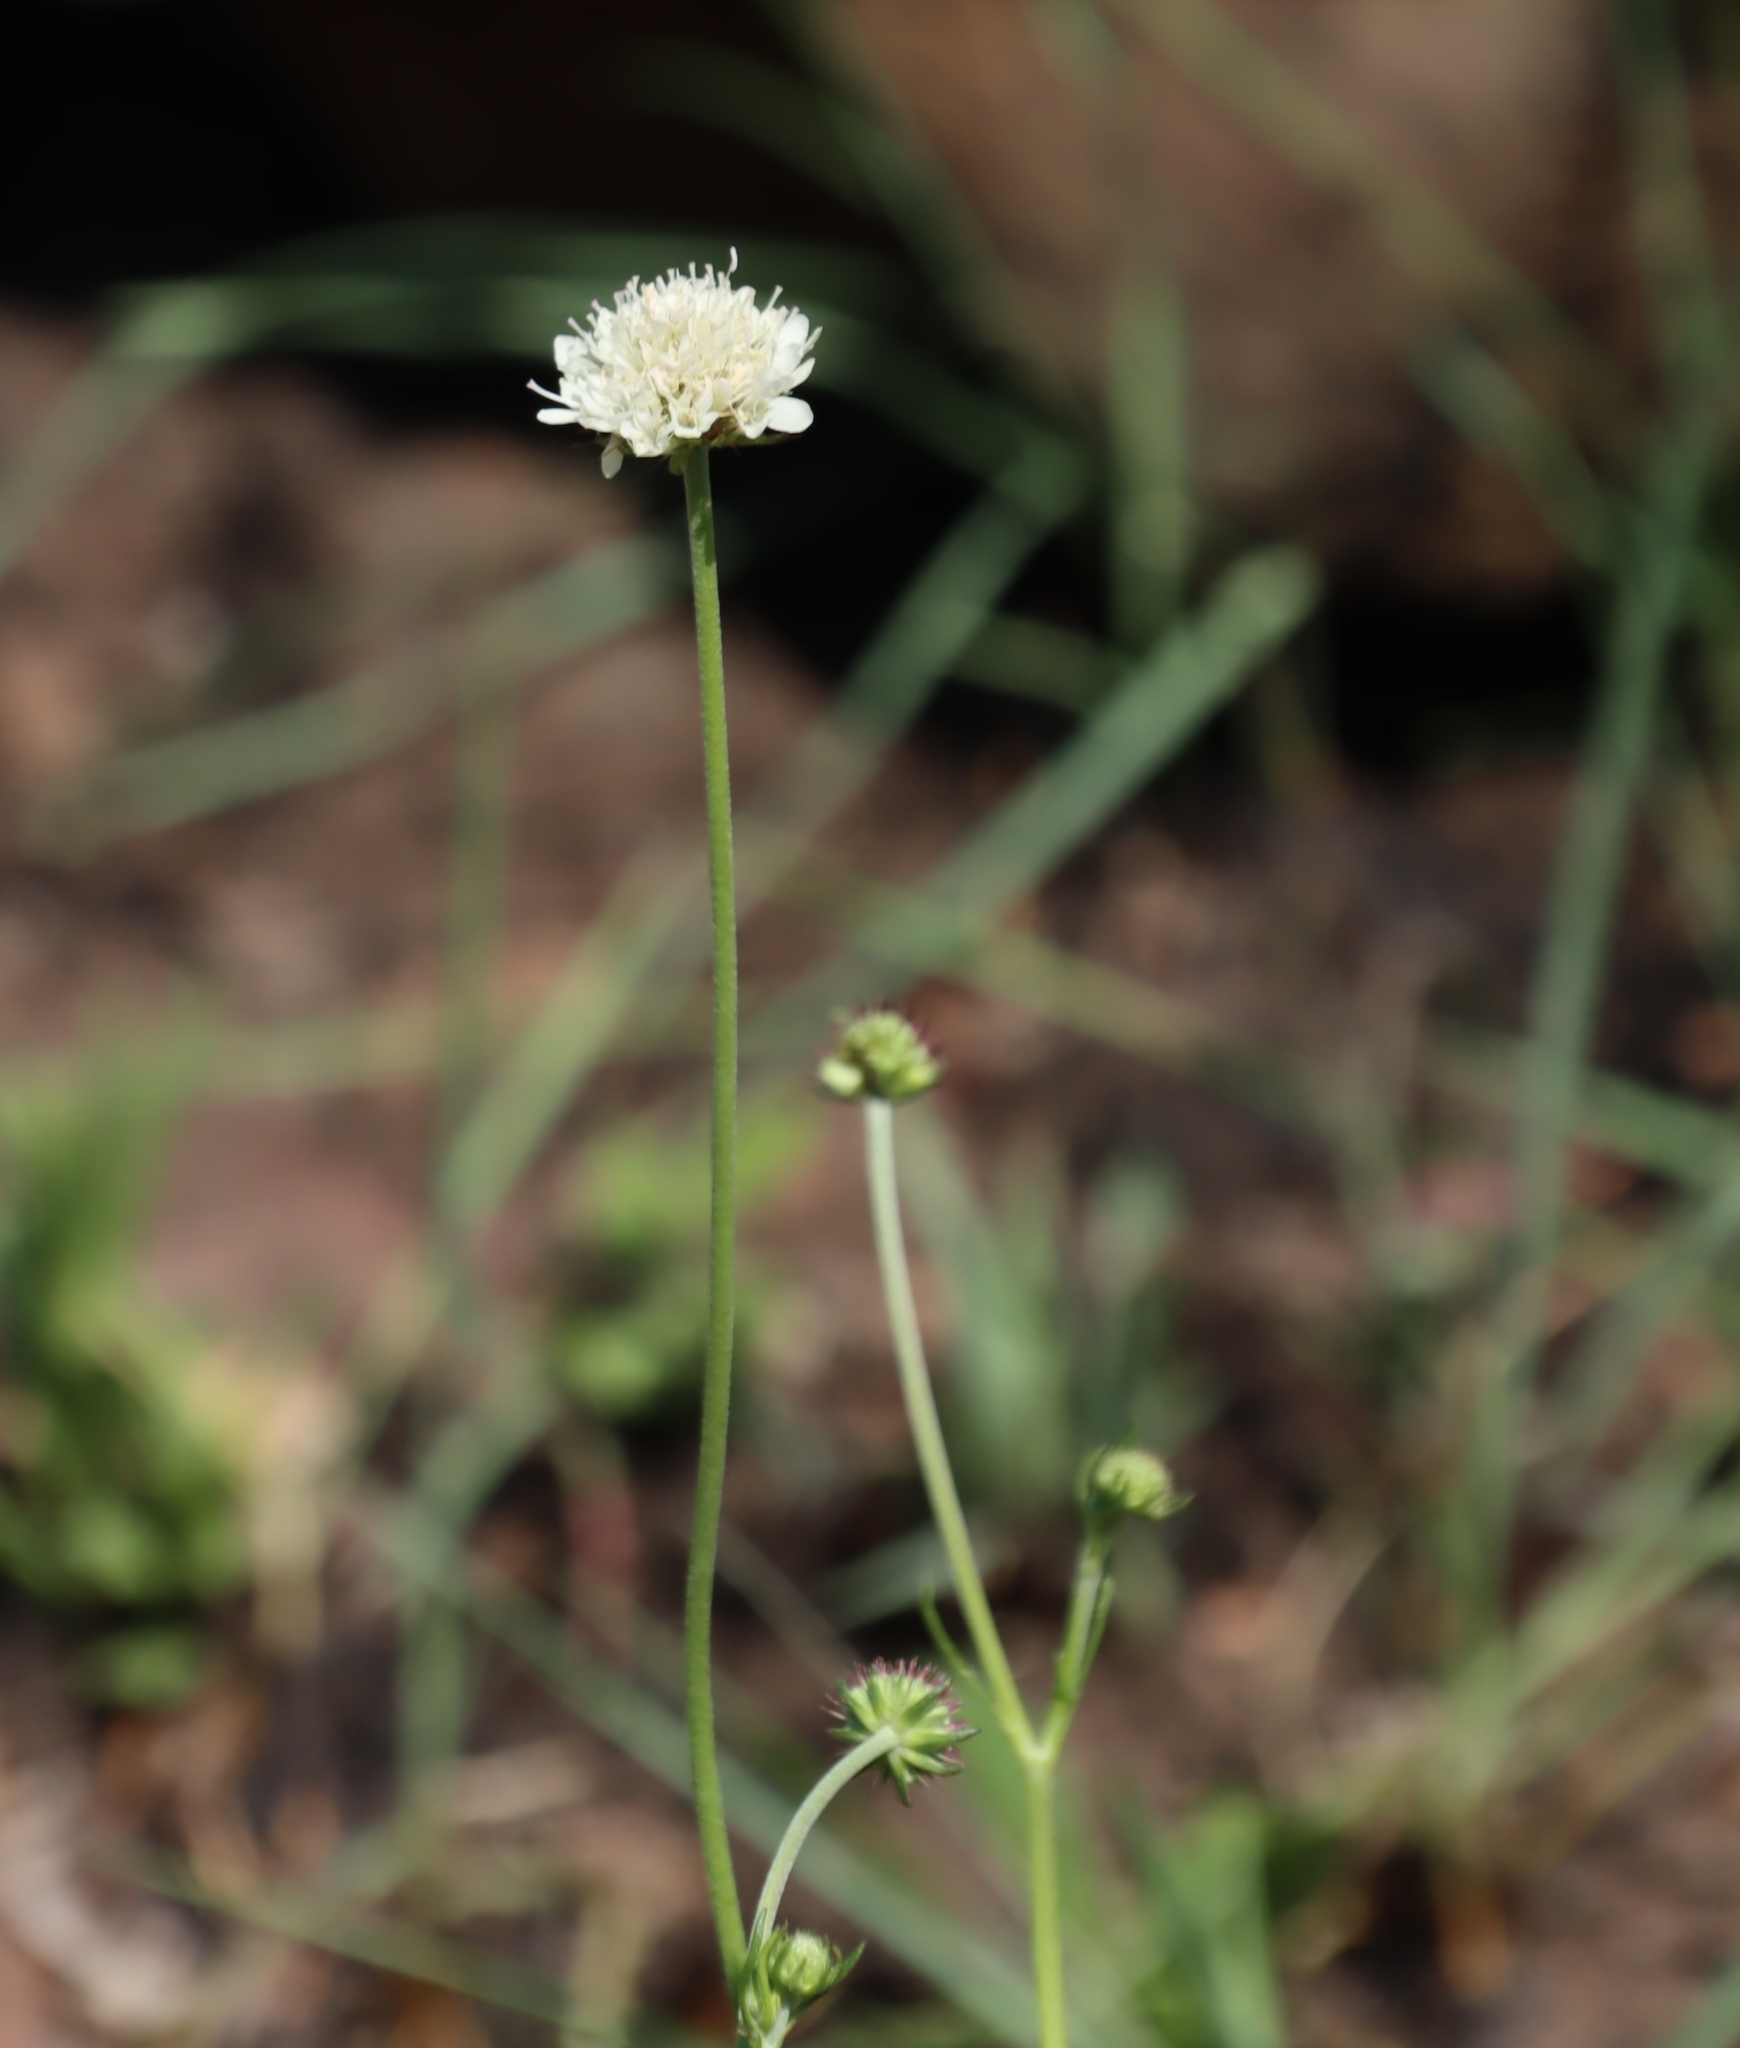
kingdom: Plantae
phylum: Tracheophyta
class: Magnoliopsida
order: Dipsacales
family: Caprifoliaceae
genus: Scabiosa
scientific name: Scabiosa columbaria
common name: Small scabious
